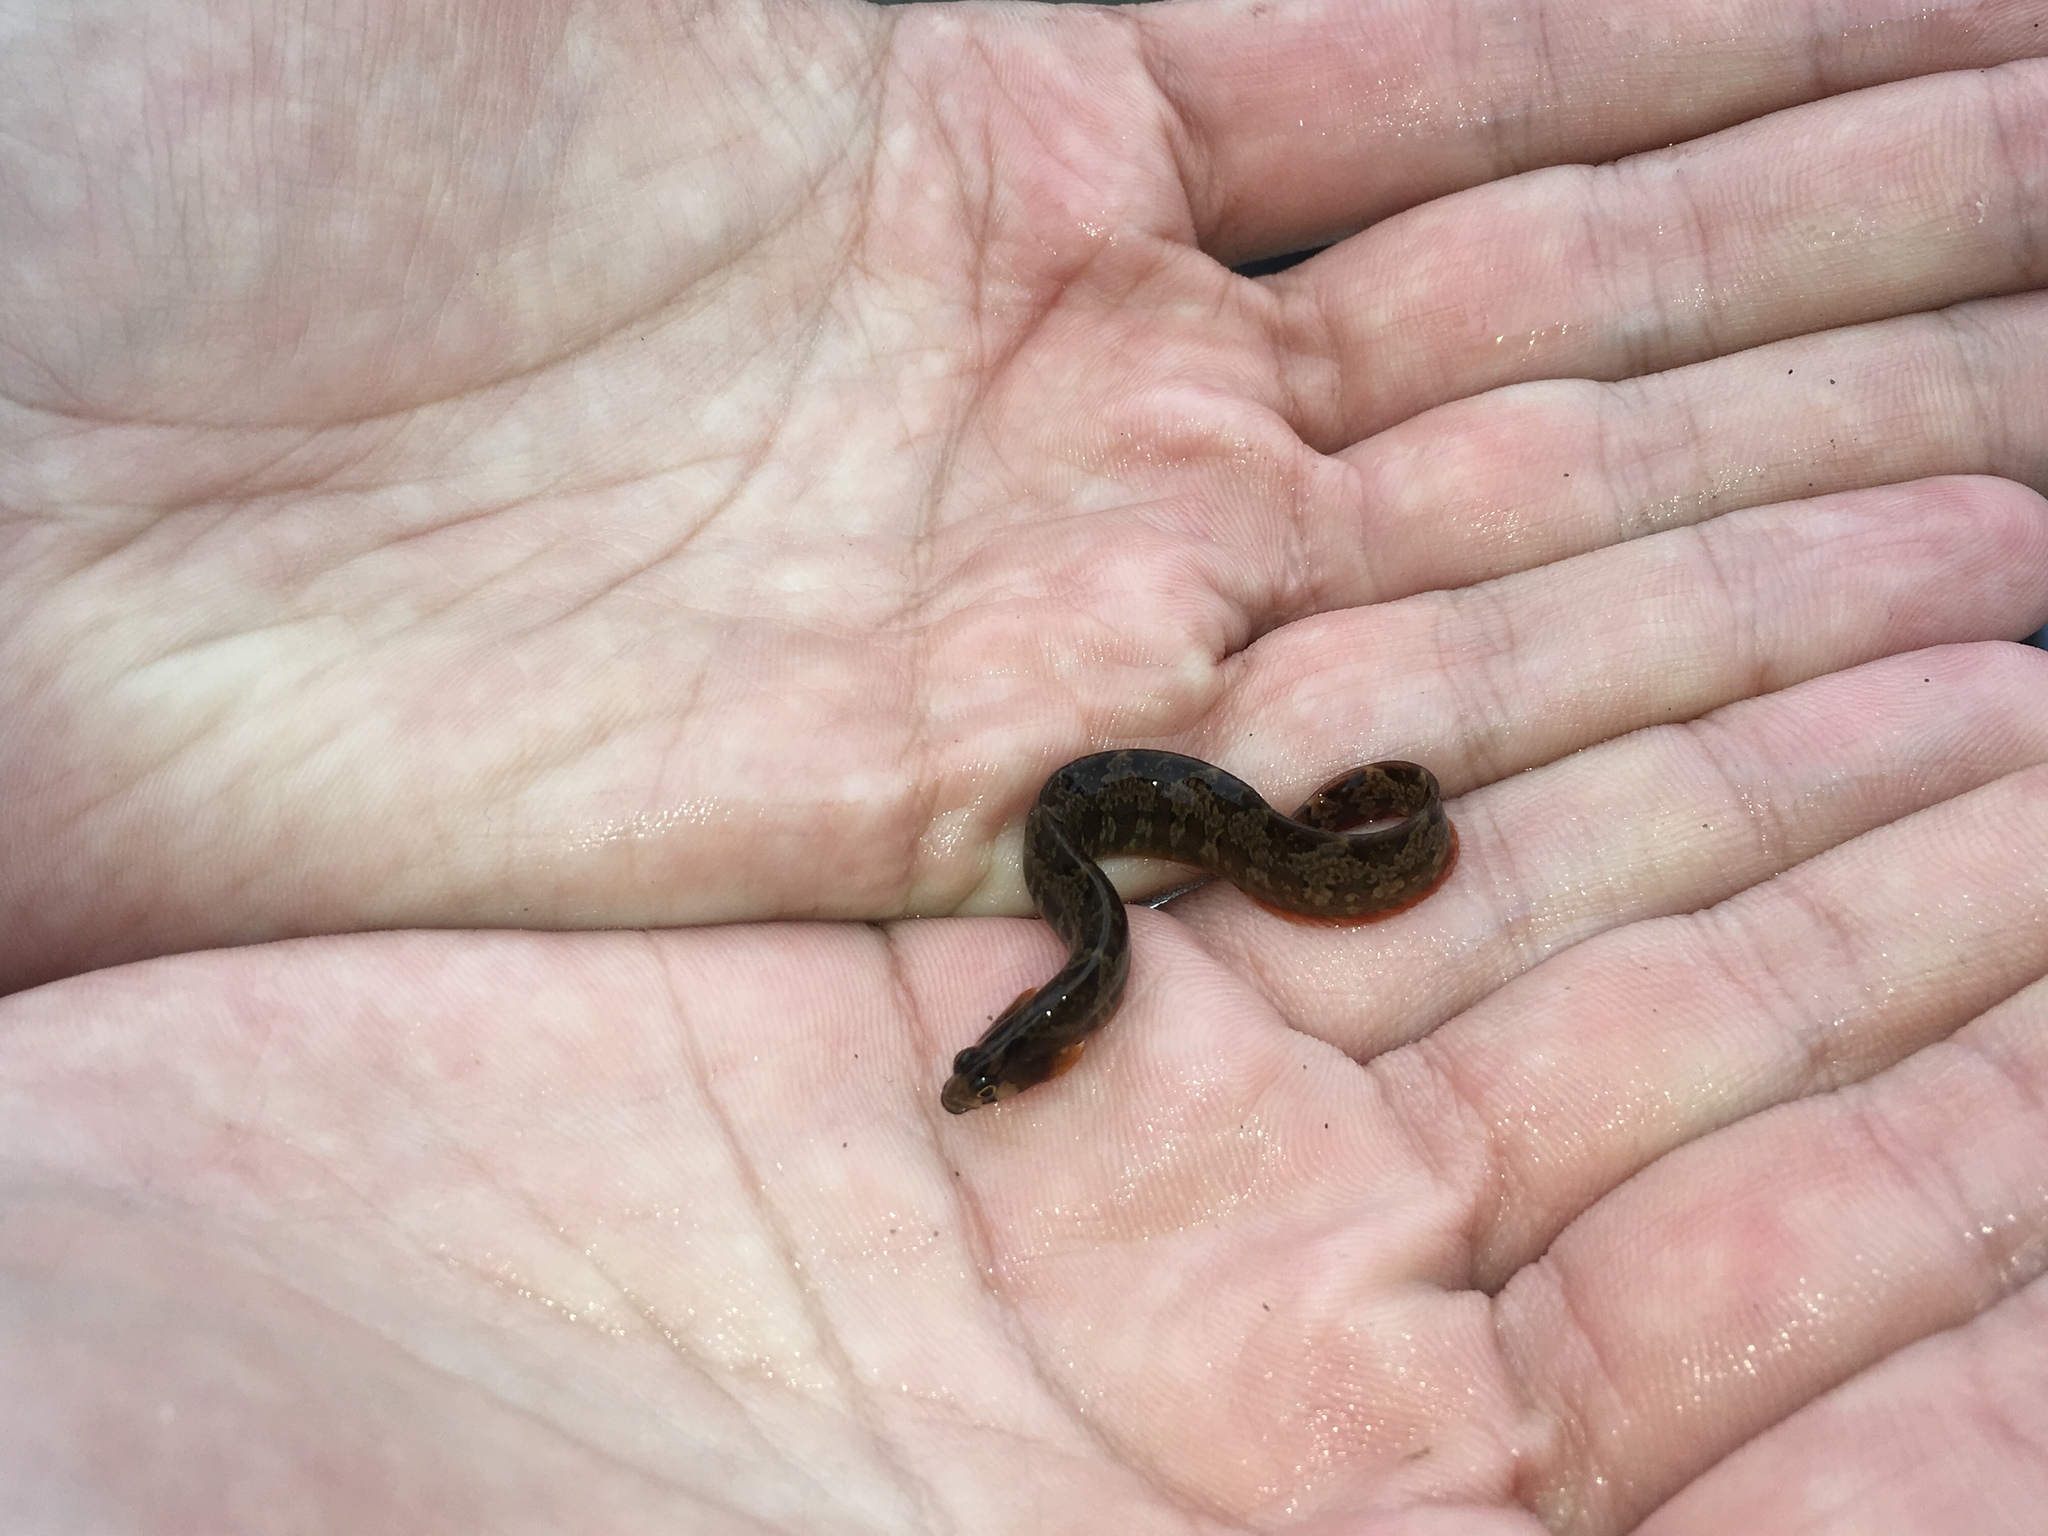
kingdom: Animalia
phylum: Chordata
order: Perciformes
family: Pholidae
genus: Pholis
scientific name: Pholis ornata
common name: Saddleback gunnel
